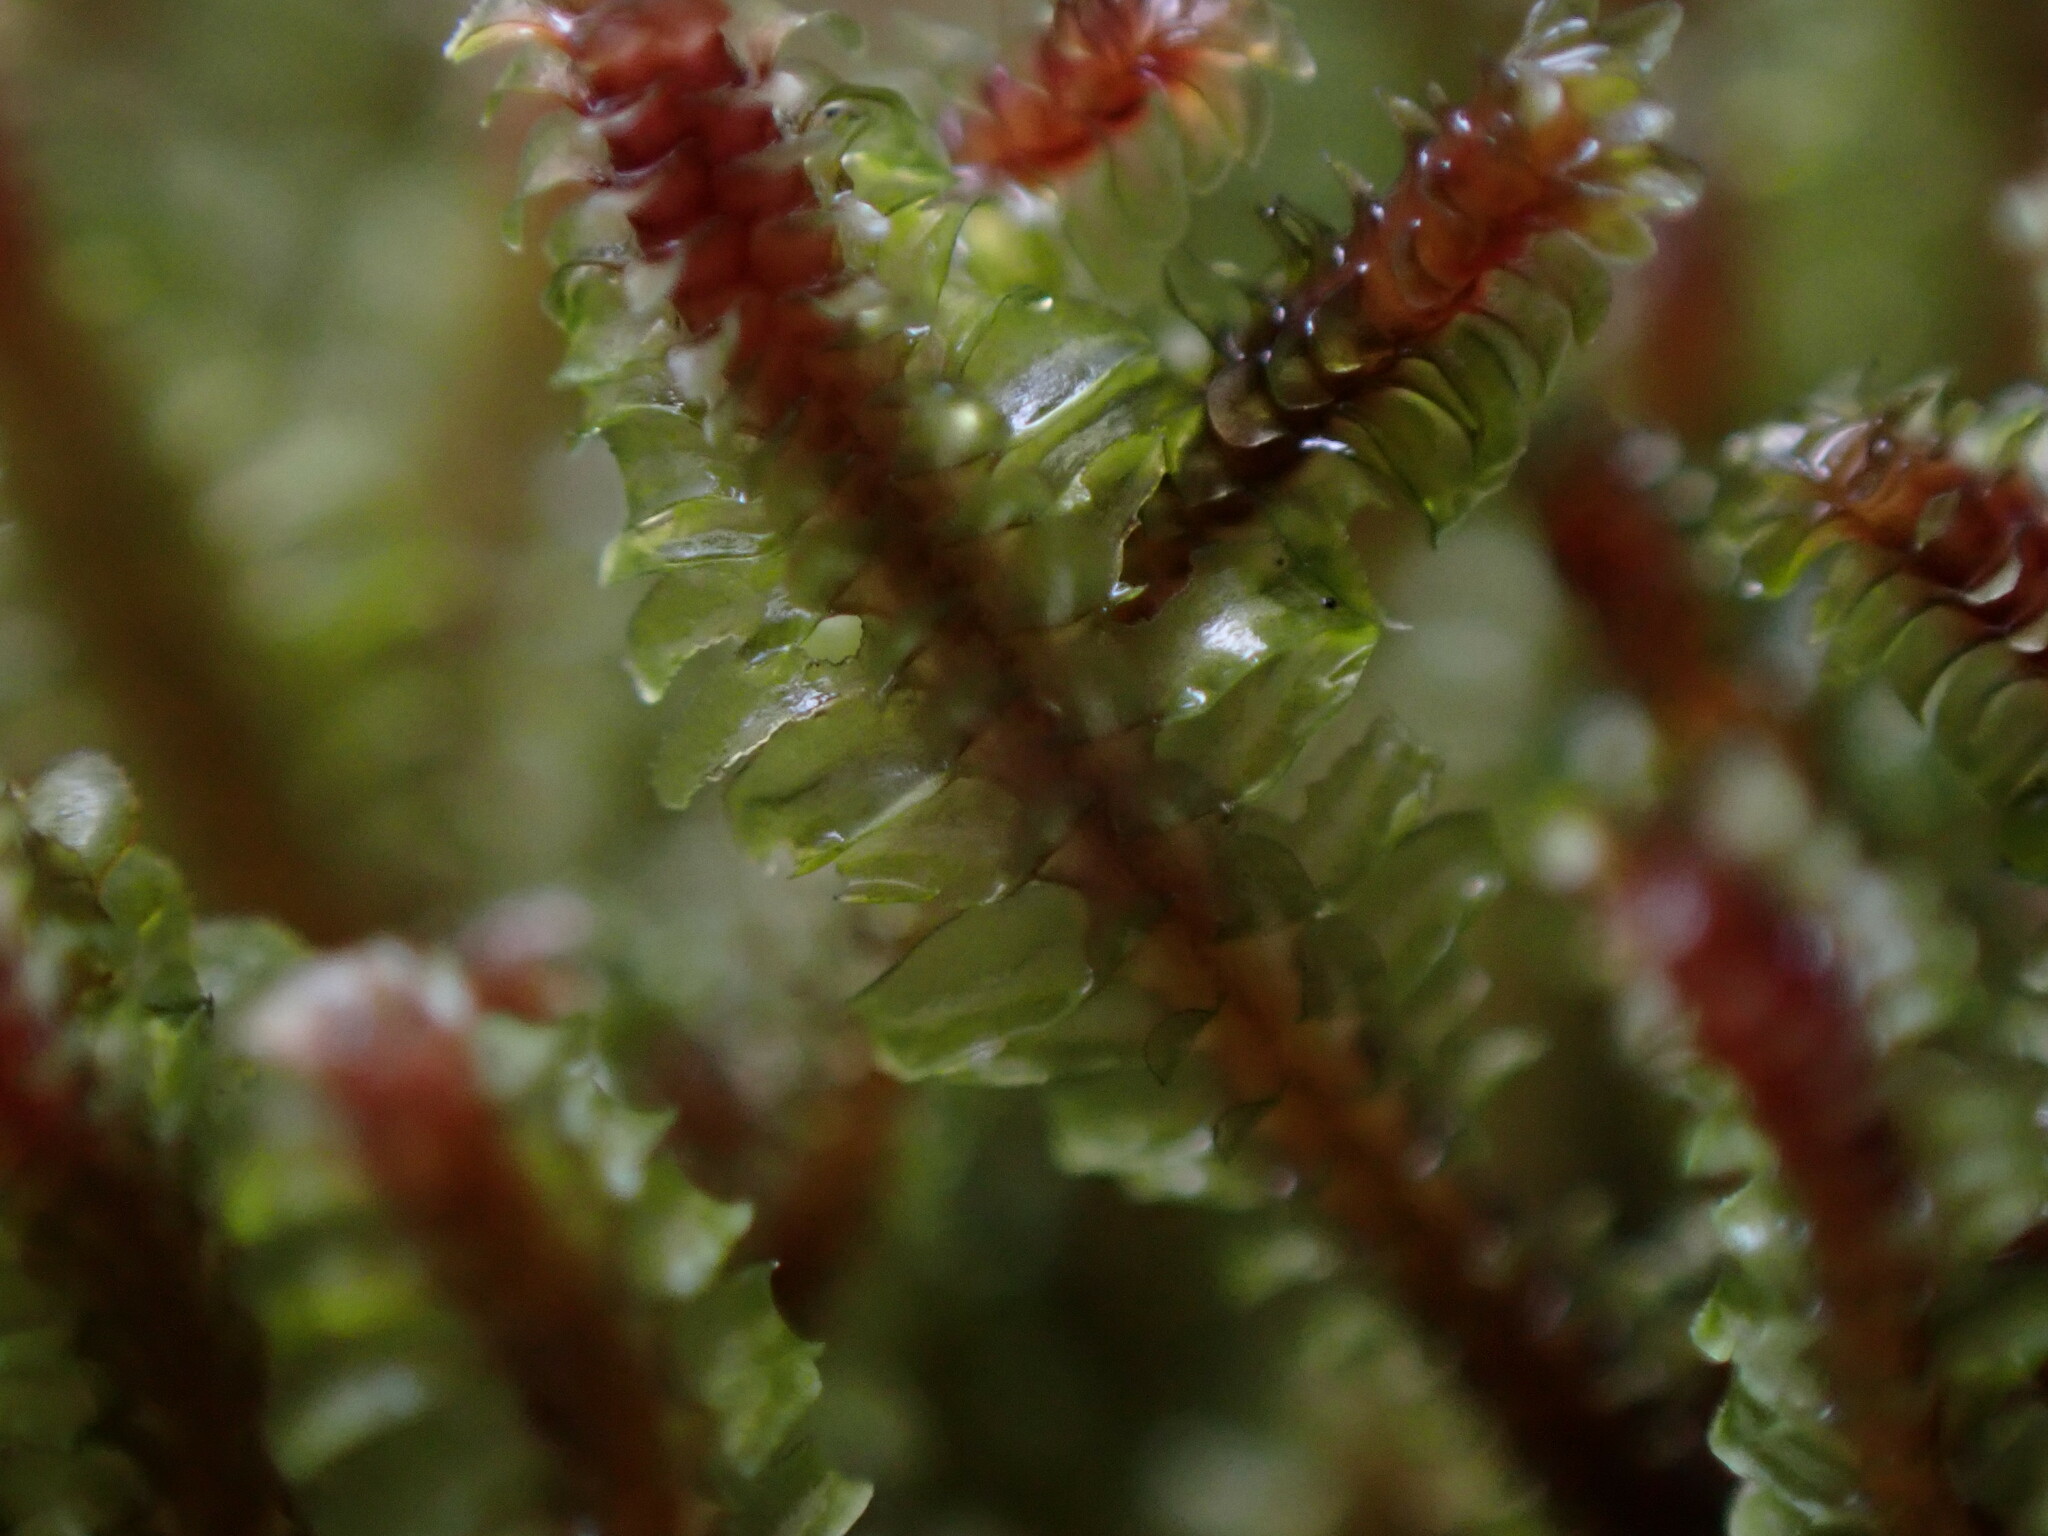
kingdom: Plantae
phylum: Marchantiophyta
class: Jungermanniopsida
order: Jungermanniales
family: Scapaniaceae
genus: Diplophyllum
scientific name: Diplophyllum albicans
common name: White earwort
